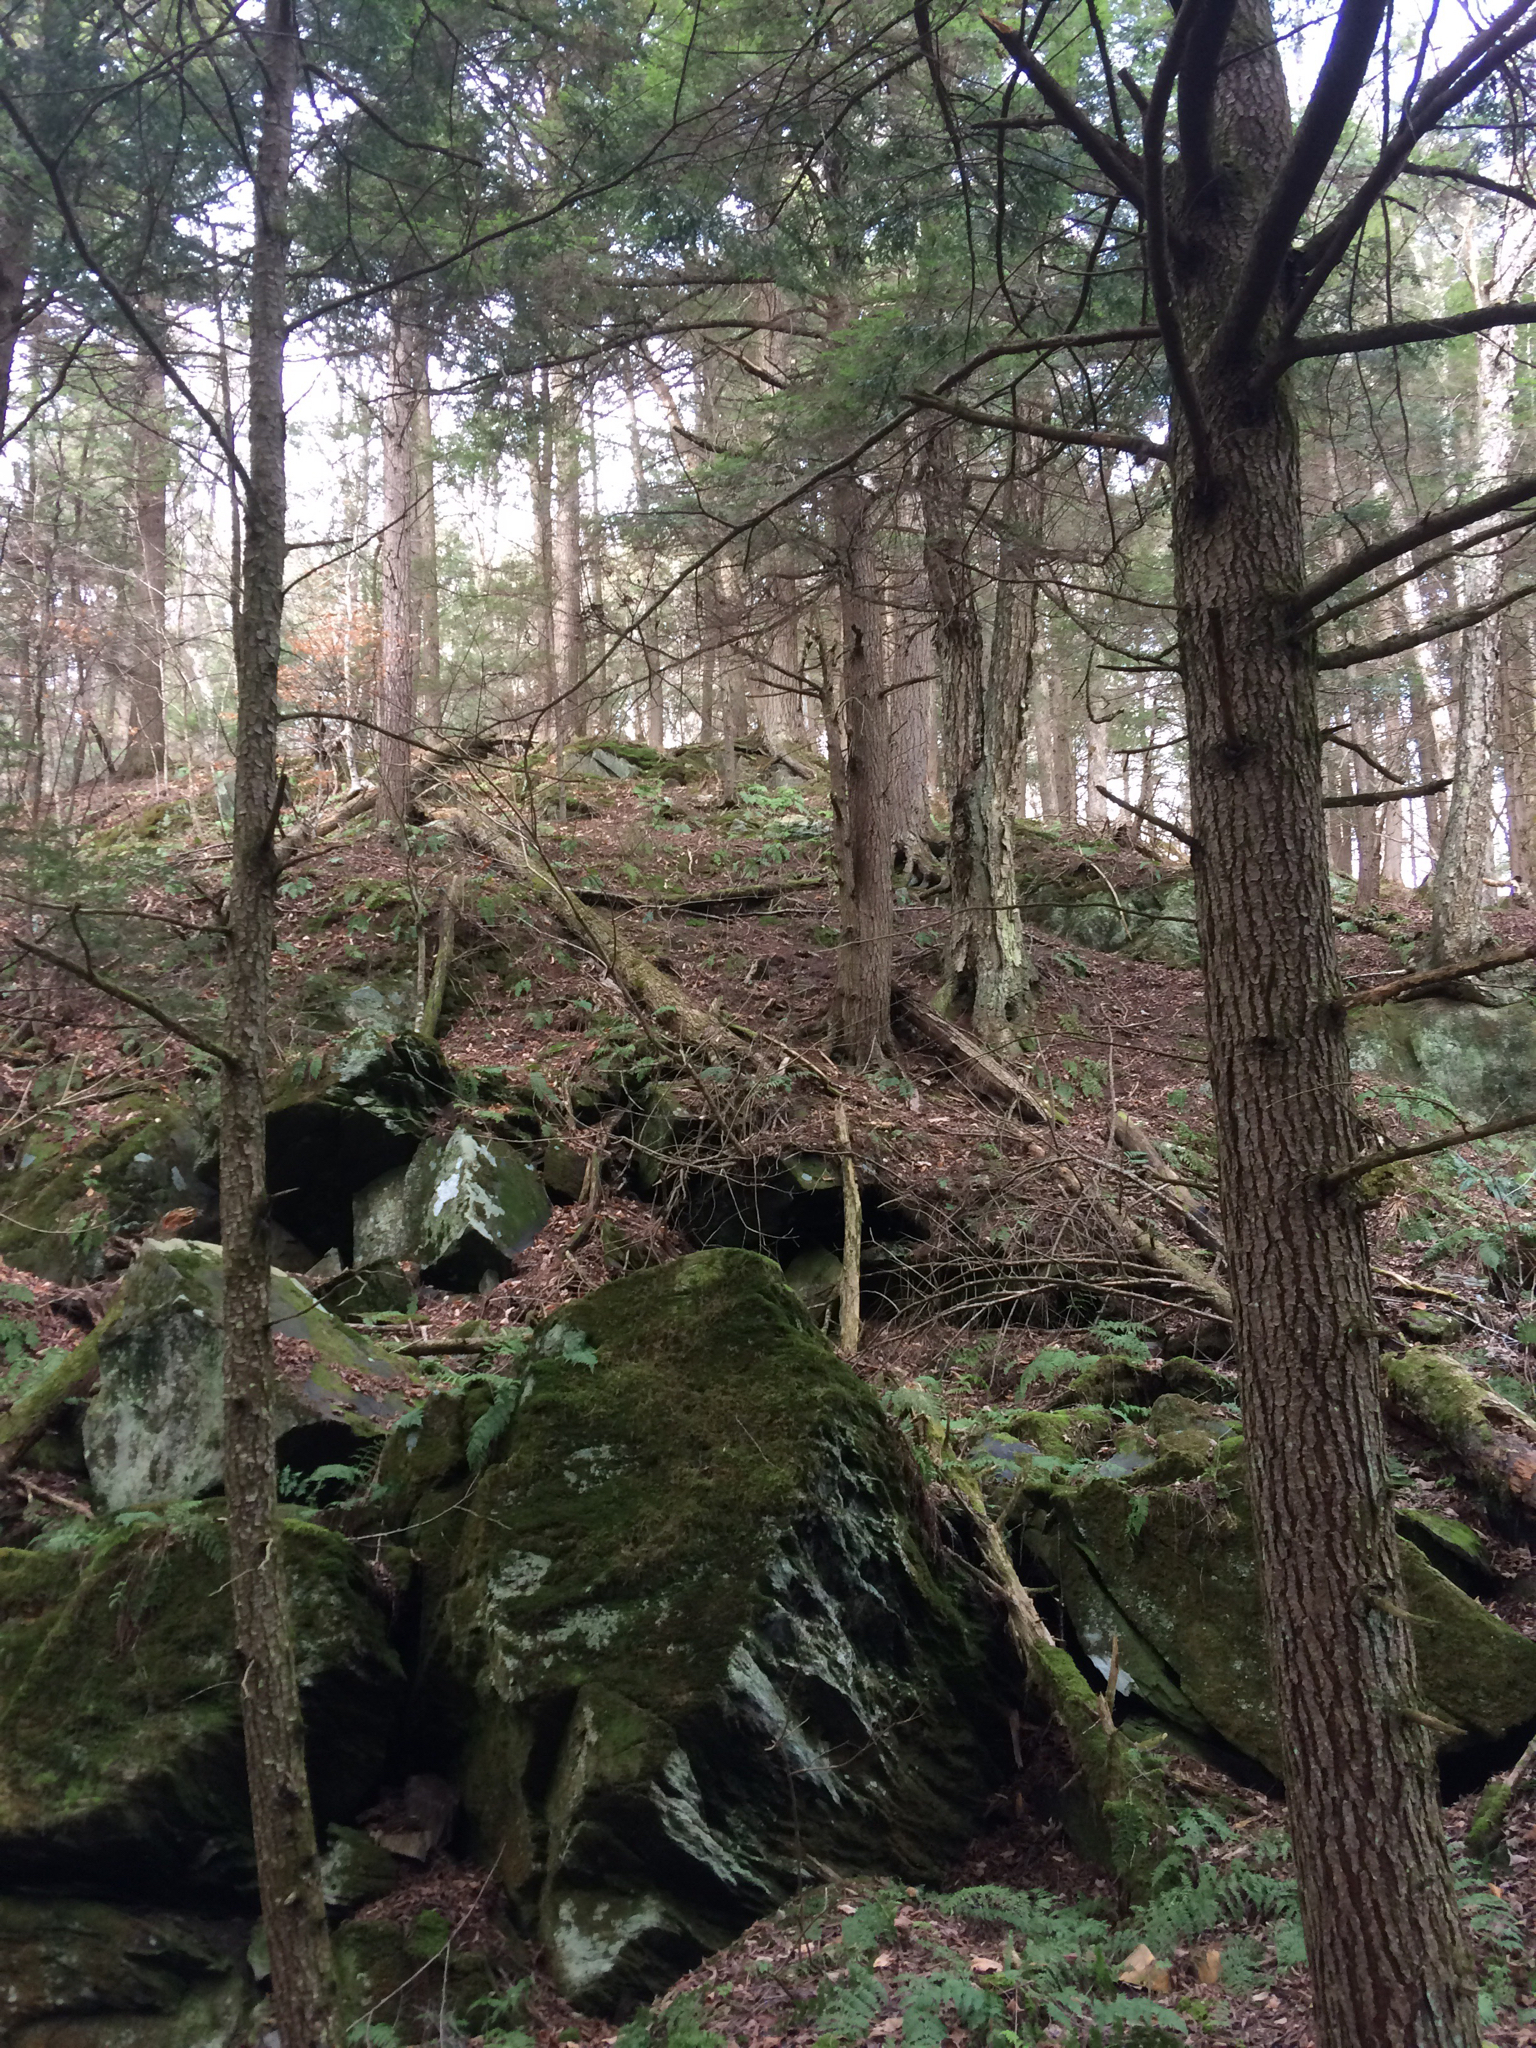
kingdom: Plantae
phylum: Tracheophyta
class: Pinopsida
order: Pinales
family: Pinaceae
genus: Tsuga
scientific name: Tsuga canadensis
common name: Eastern hemlock
